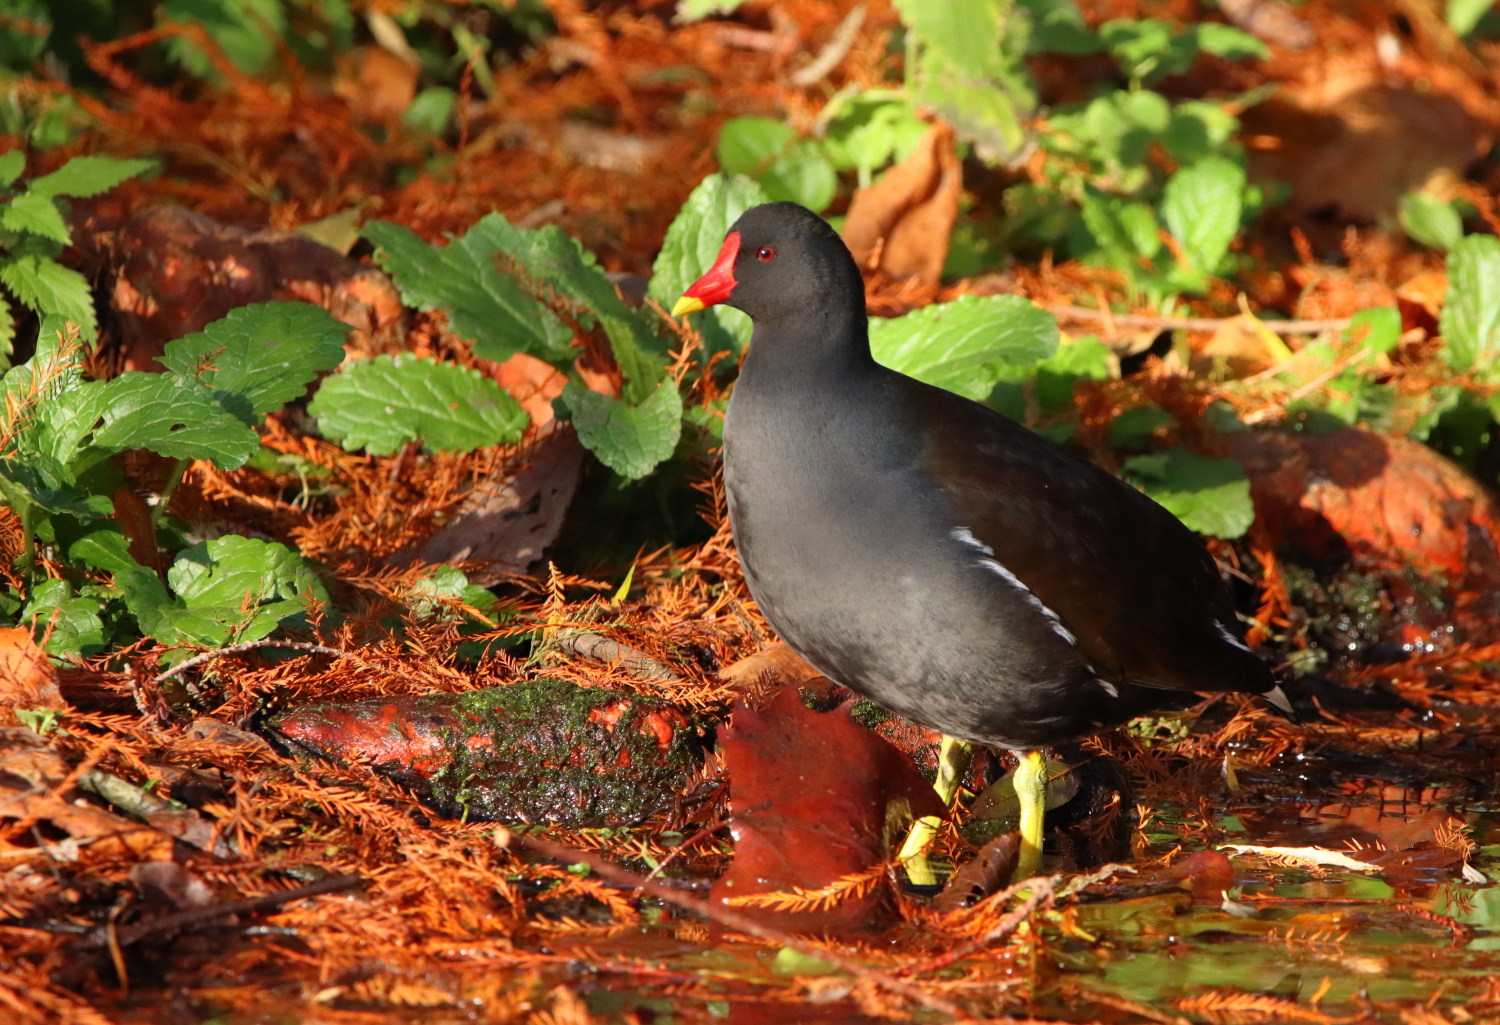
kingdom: Animalia
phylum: Chordata
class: Aves
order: Gruiformes
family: Rallidae
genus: Gallinula
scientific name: Gallinula chloropus
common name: Common moorhen
